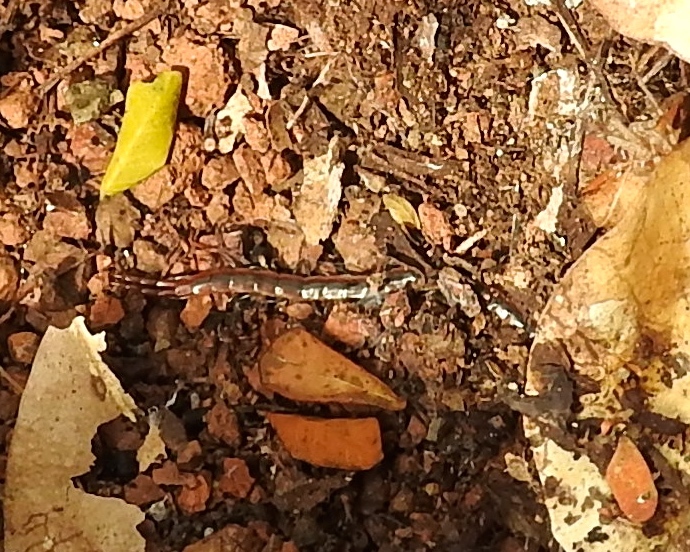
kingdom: Animalia
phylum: Arthropoda
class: Chilopoda
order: Scolopendromorpha
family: Scolopendridae
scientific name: Scolopendridae
